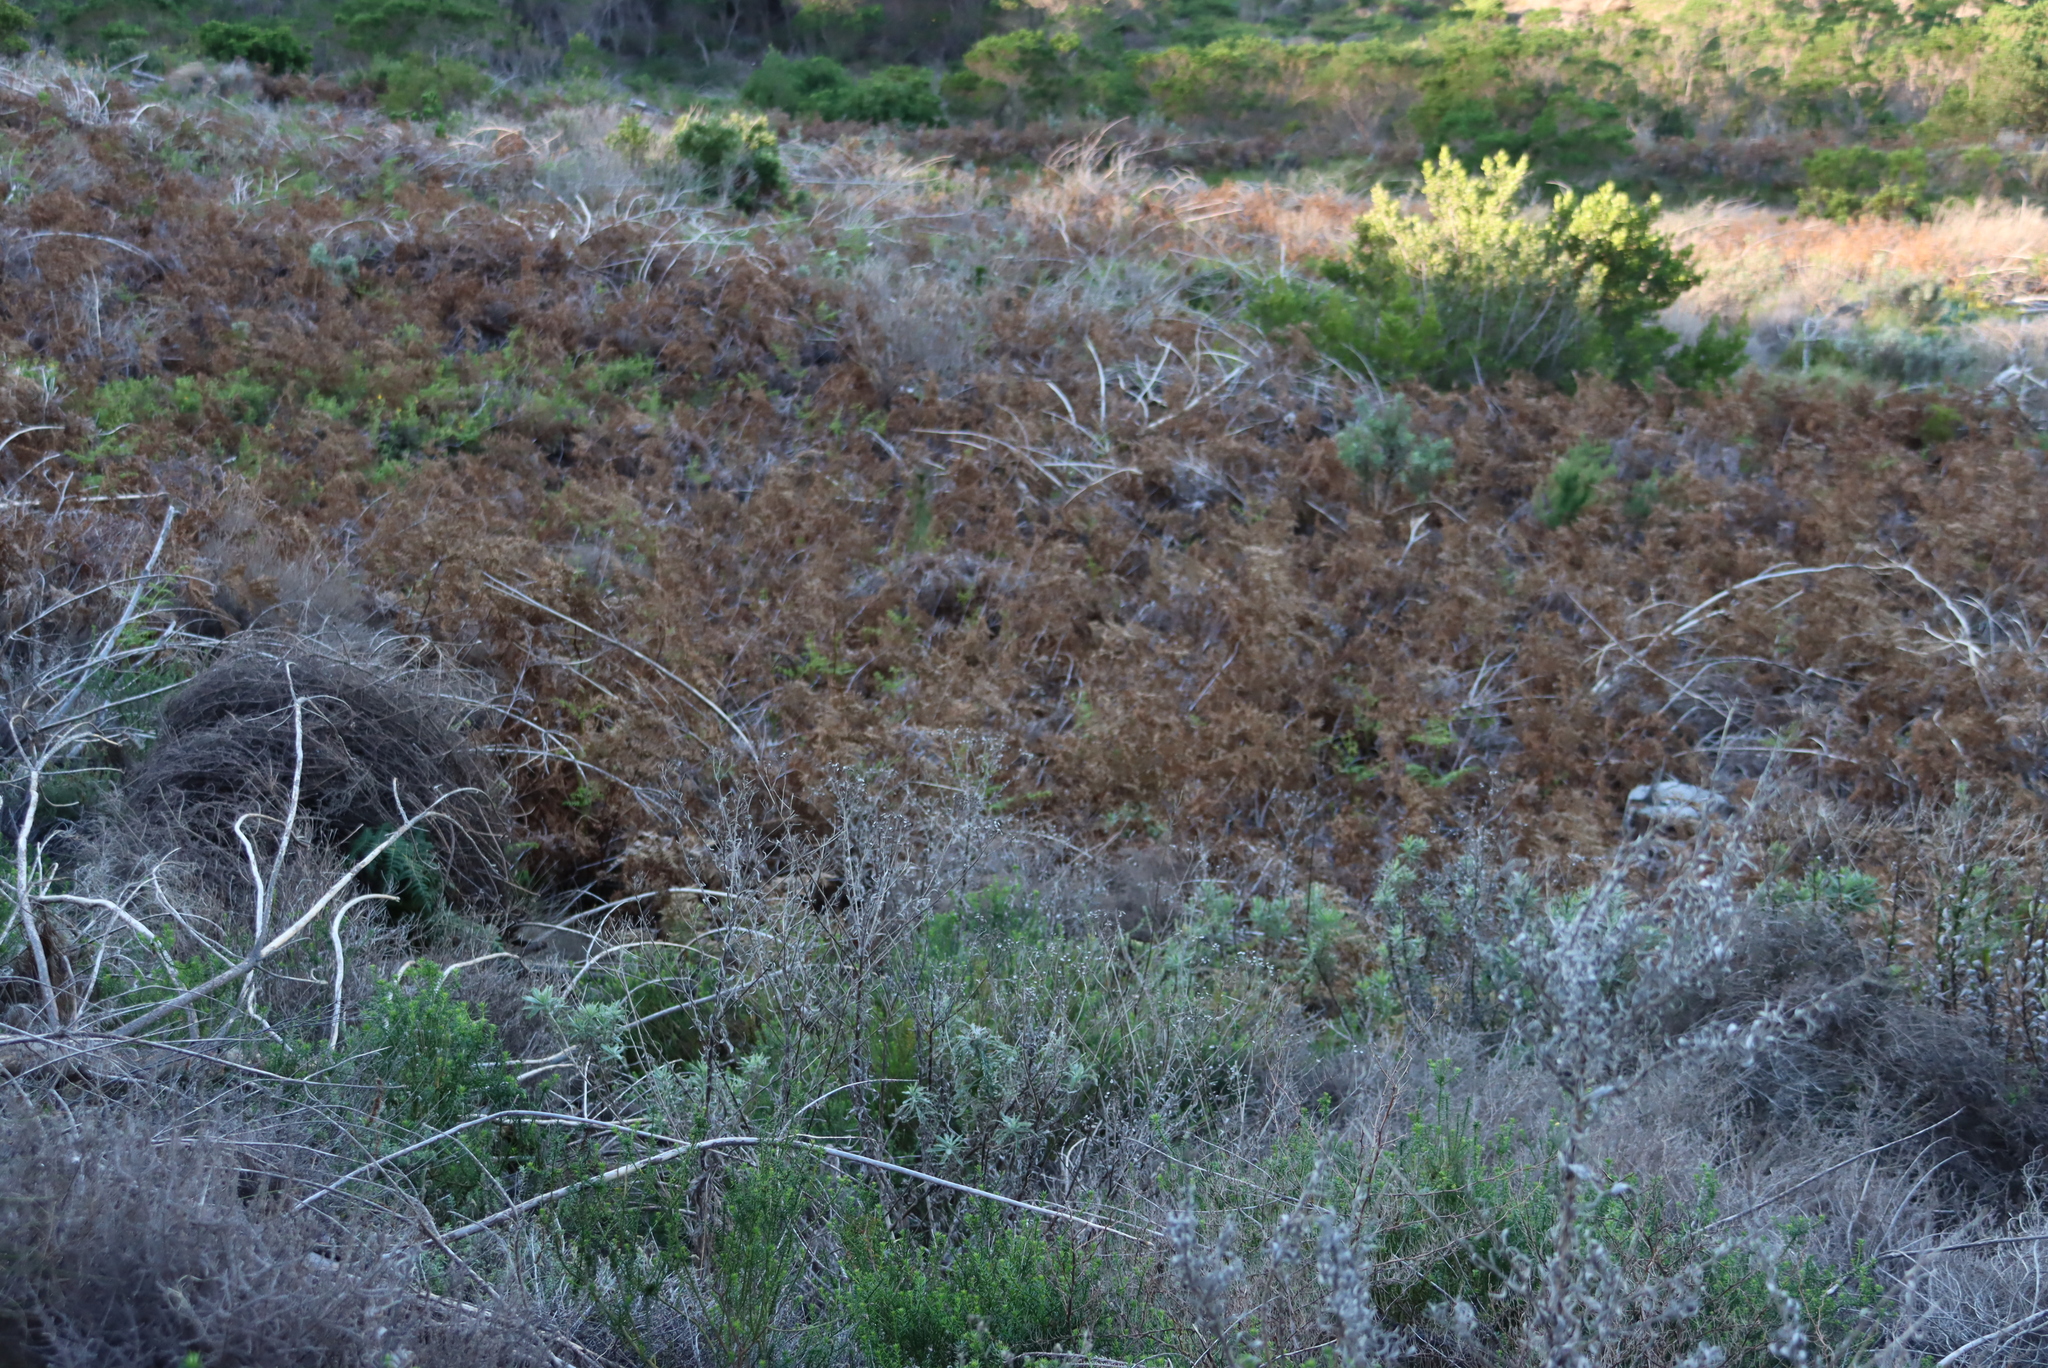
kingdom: Plantae
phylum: Tracheophyta
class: Polypodiopsida
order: Polypodiales
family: Dennstaedtiaceae
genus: Pteridium
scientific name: Pteridium aquilinum
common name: Bracken
